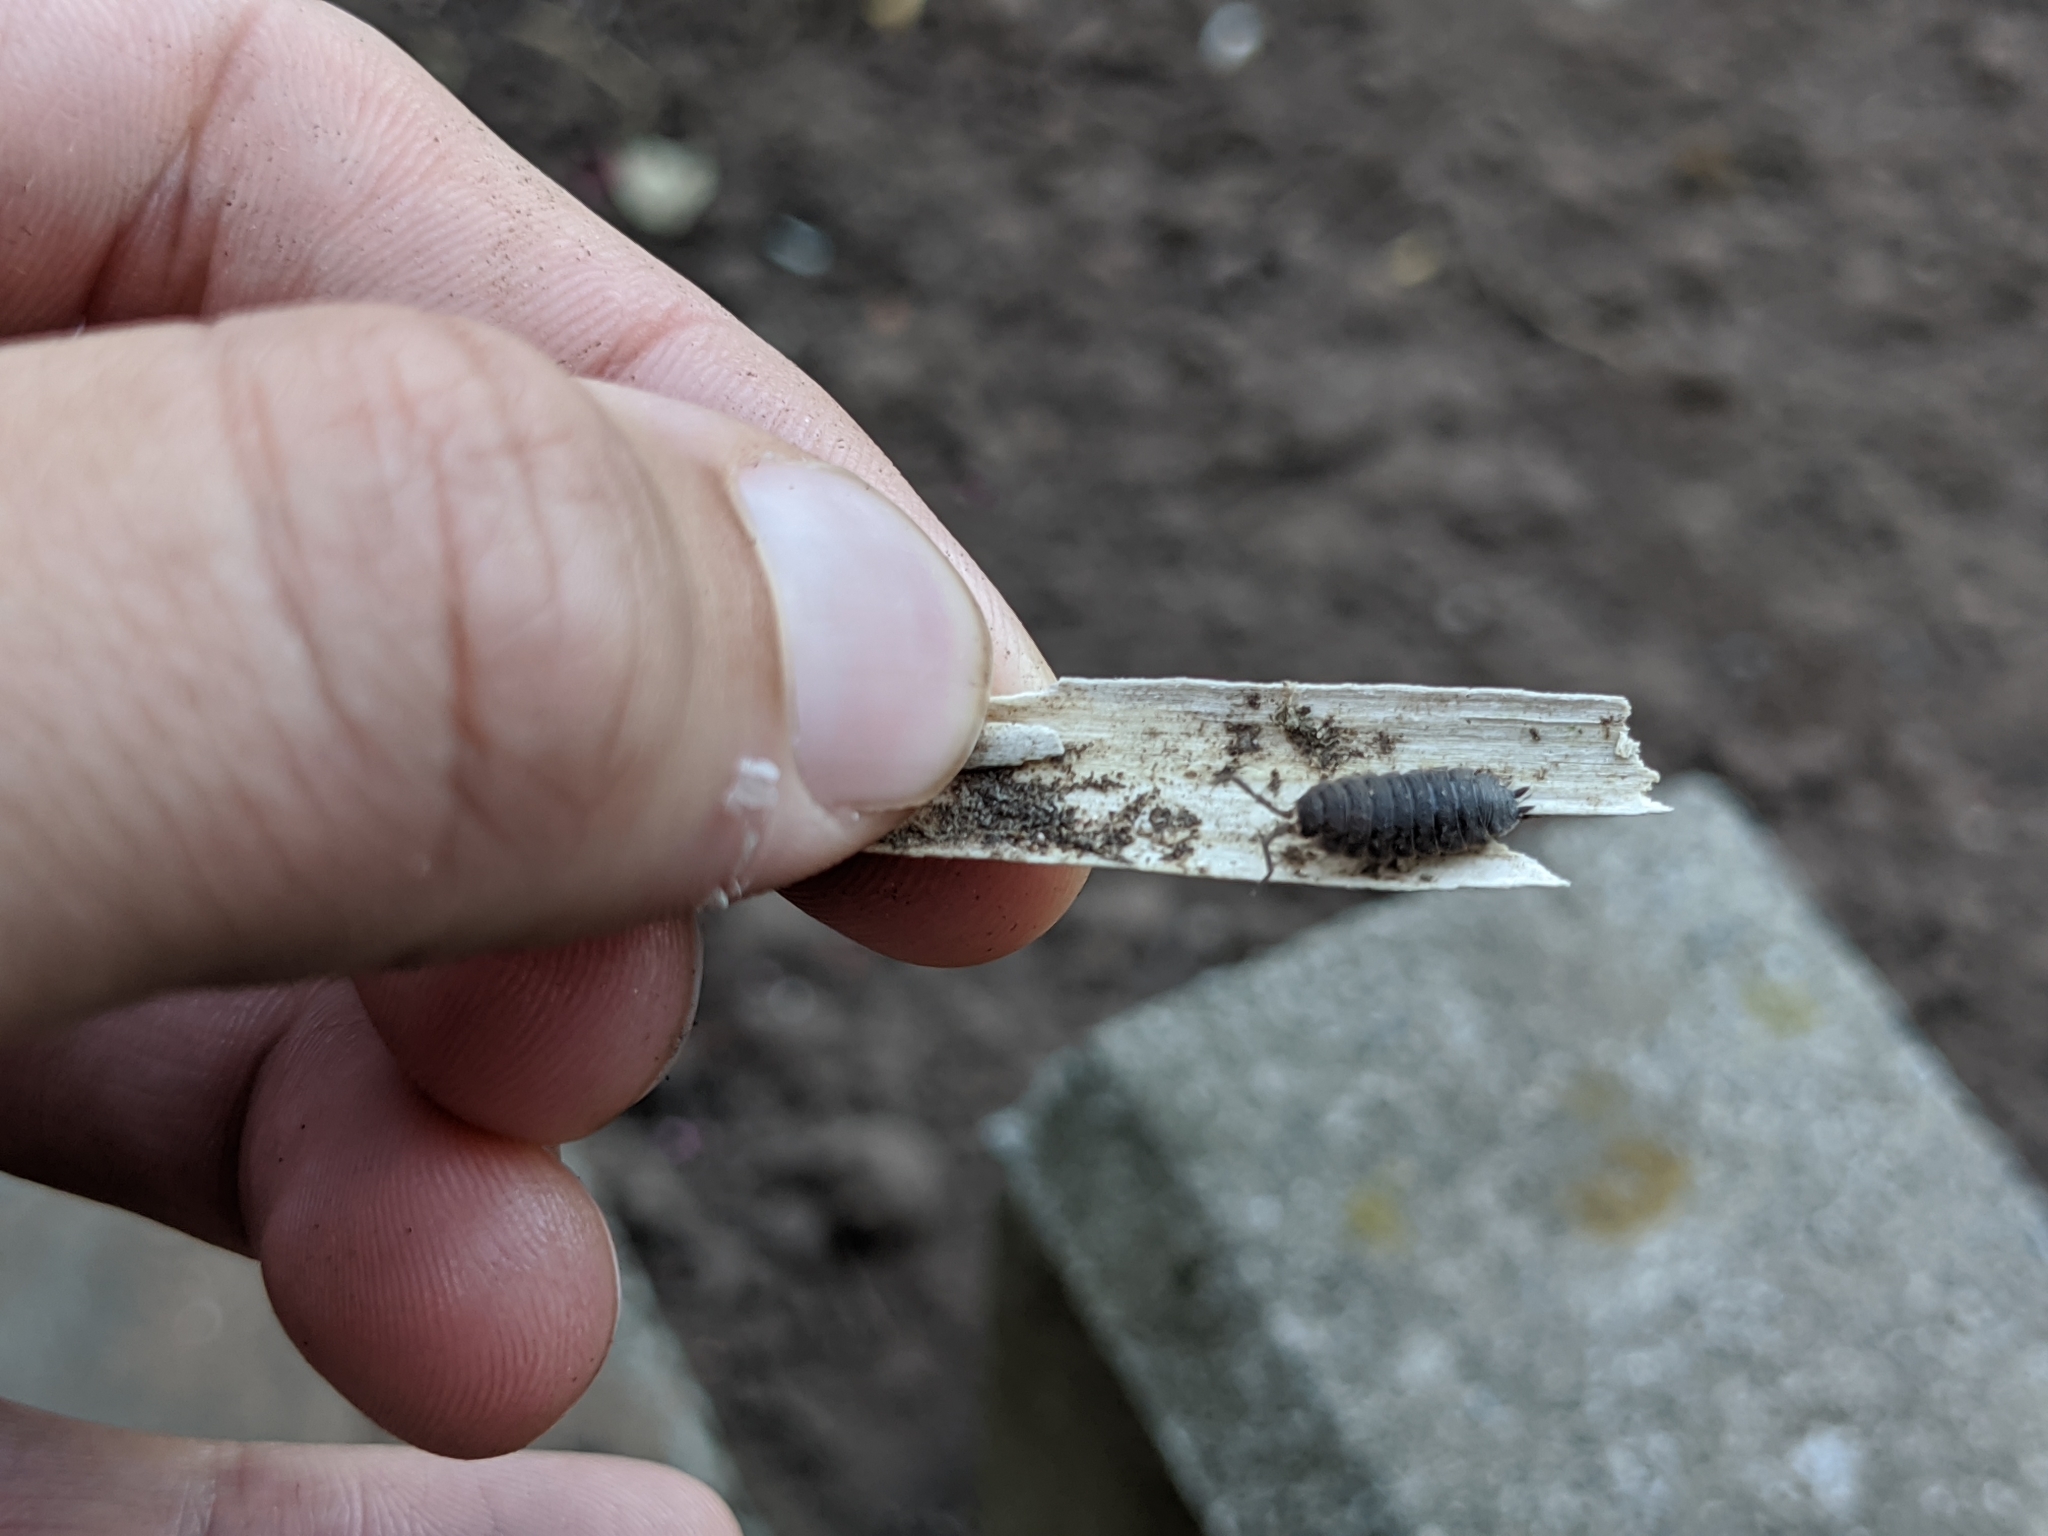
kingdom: Animalia
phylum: Arthropoda
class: Malacostraca
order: Isopoda
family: Porcellionidae
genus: Porcellio
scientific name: Porcellio scaber
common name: Common rough woodlouse
